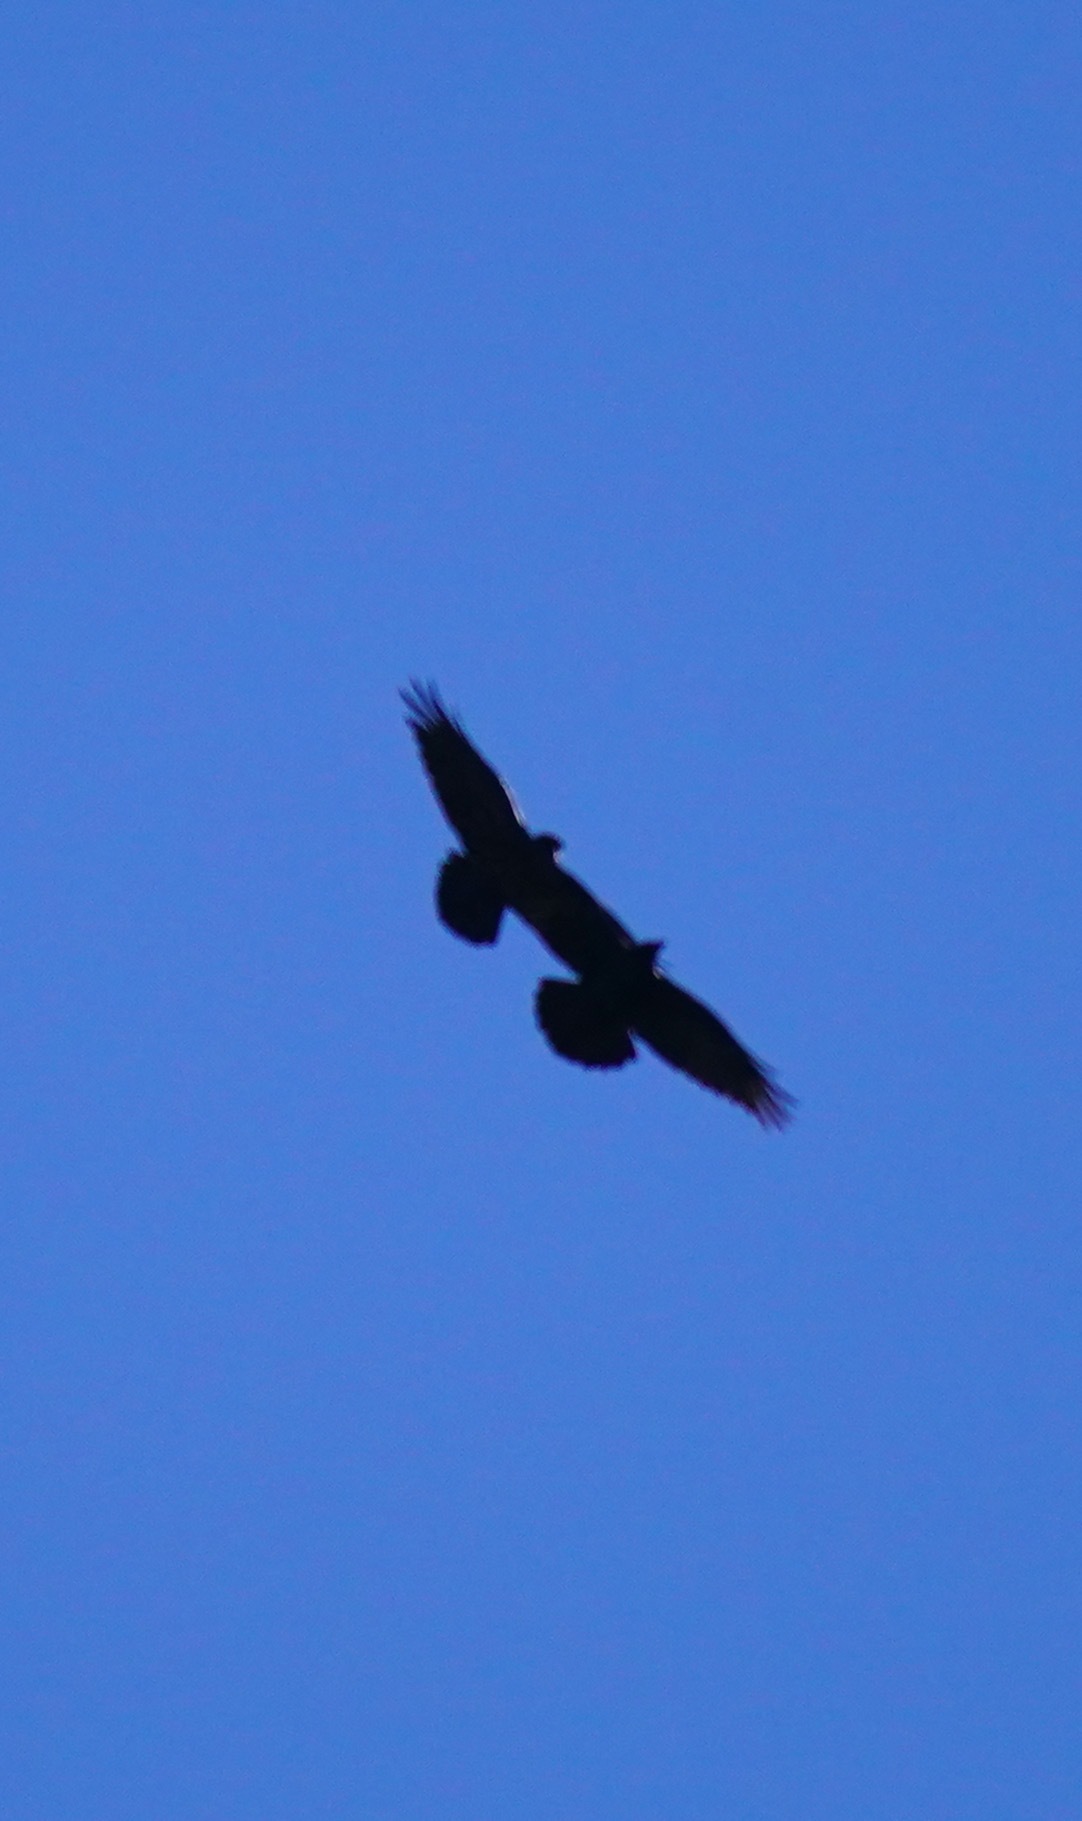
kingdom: Animalia
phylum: Chordata
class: Aves
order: Passeriformes
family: Corvidae
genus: Corvus
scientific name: Corvus corax
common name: Common raven
